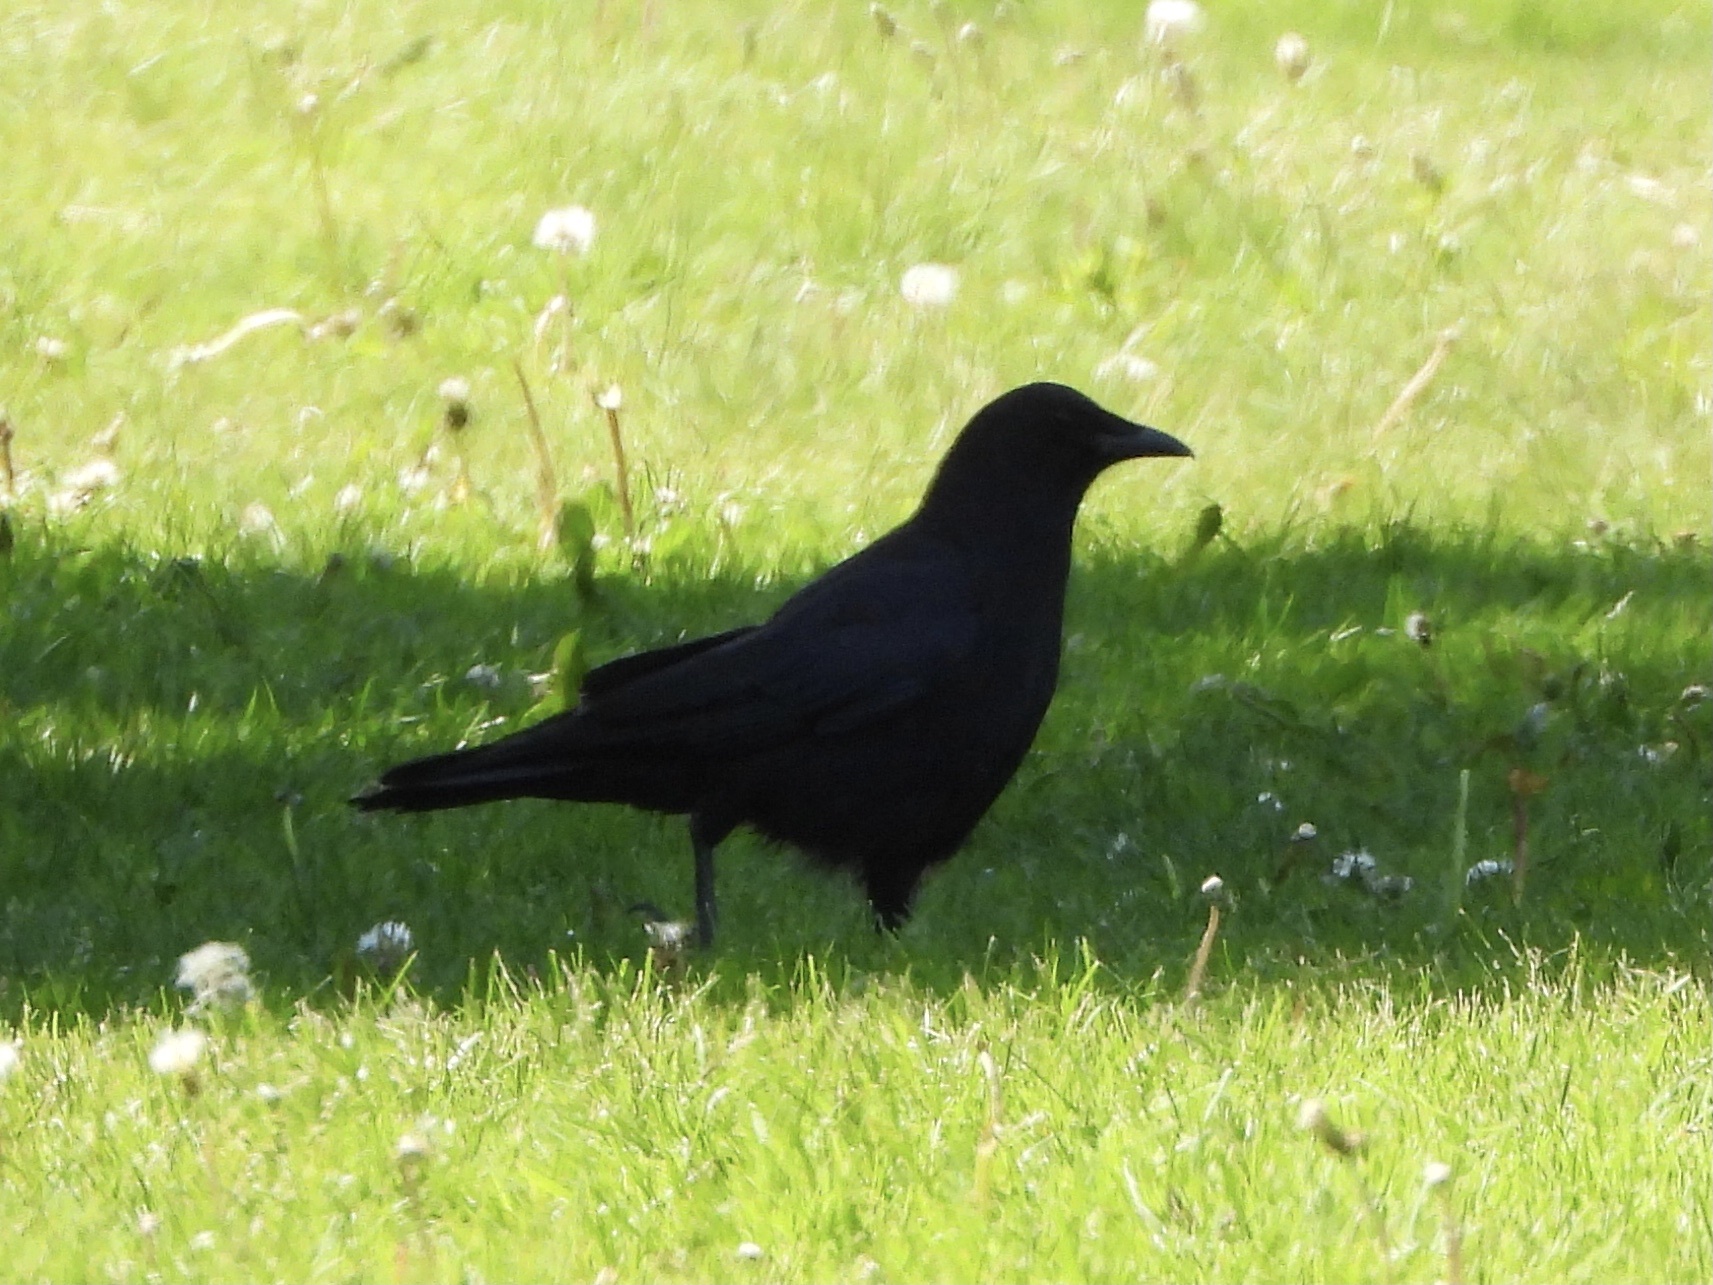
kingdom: Animalia
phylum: Chordata
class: Aves
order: Passeriformes
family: Corvidae
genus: Corvus
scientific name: Corvus brachyrhynchos
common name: American crow
